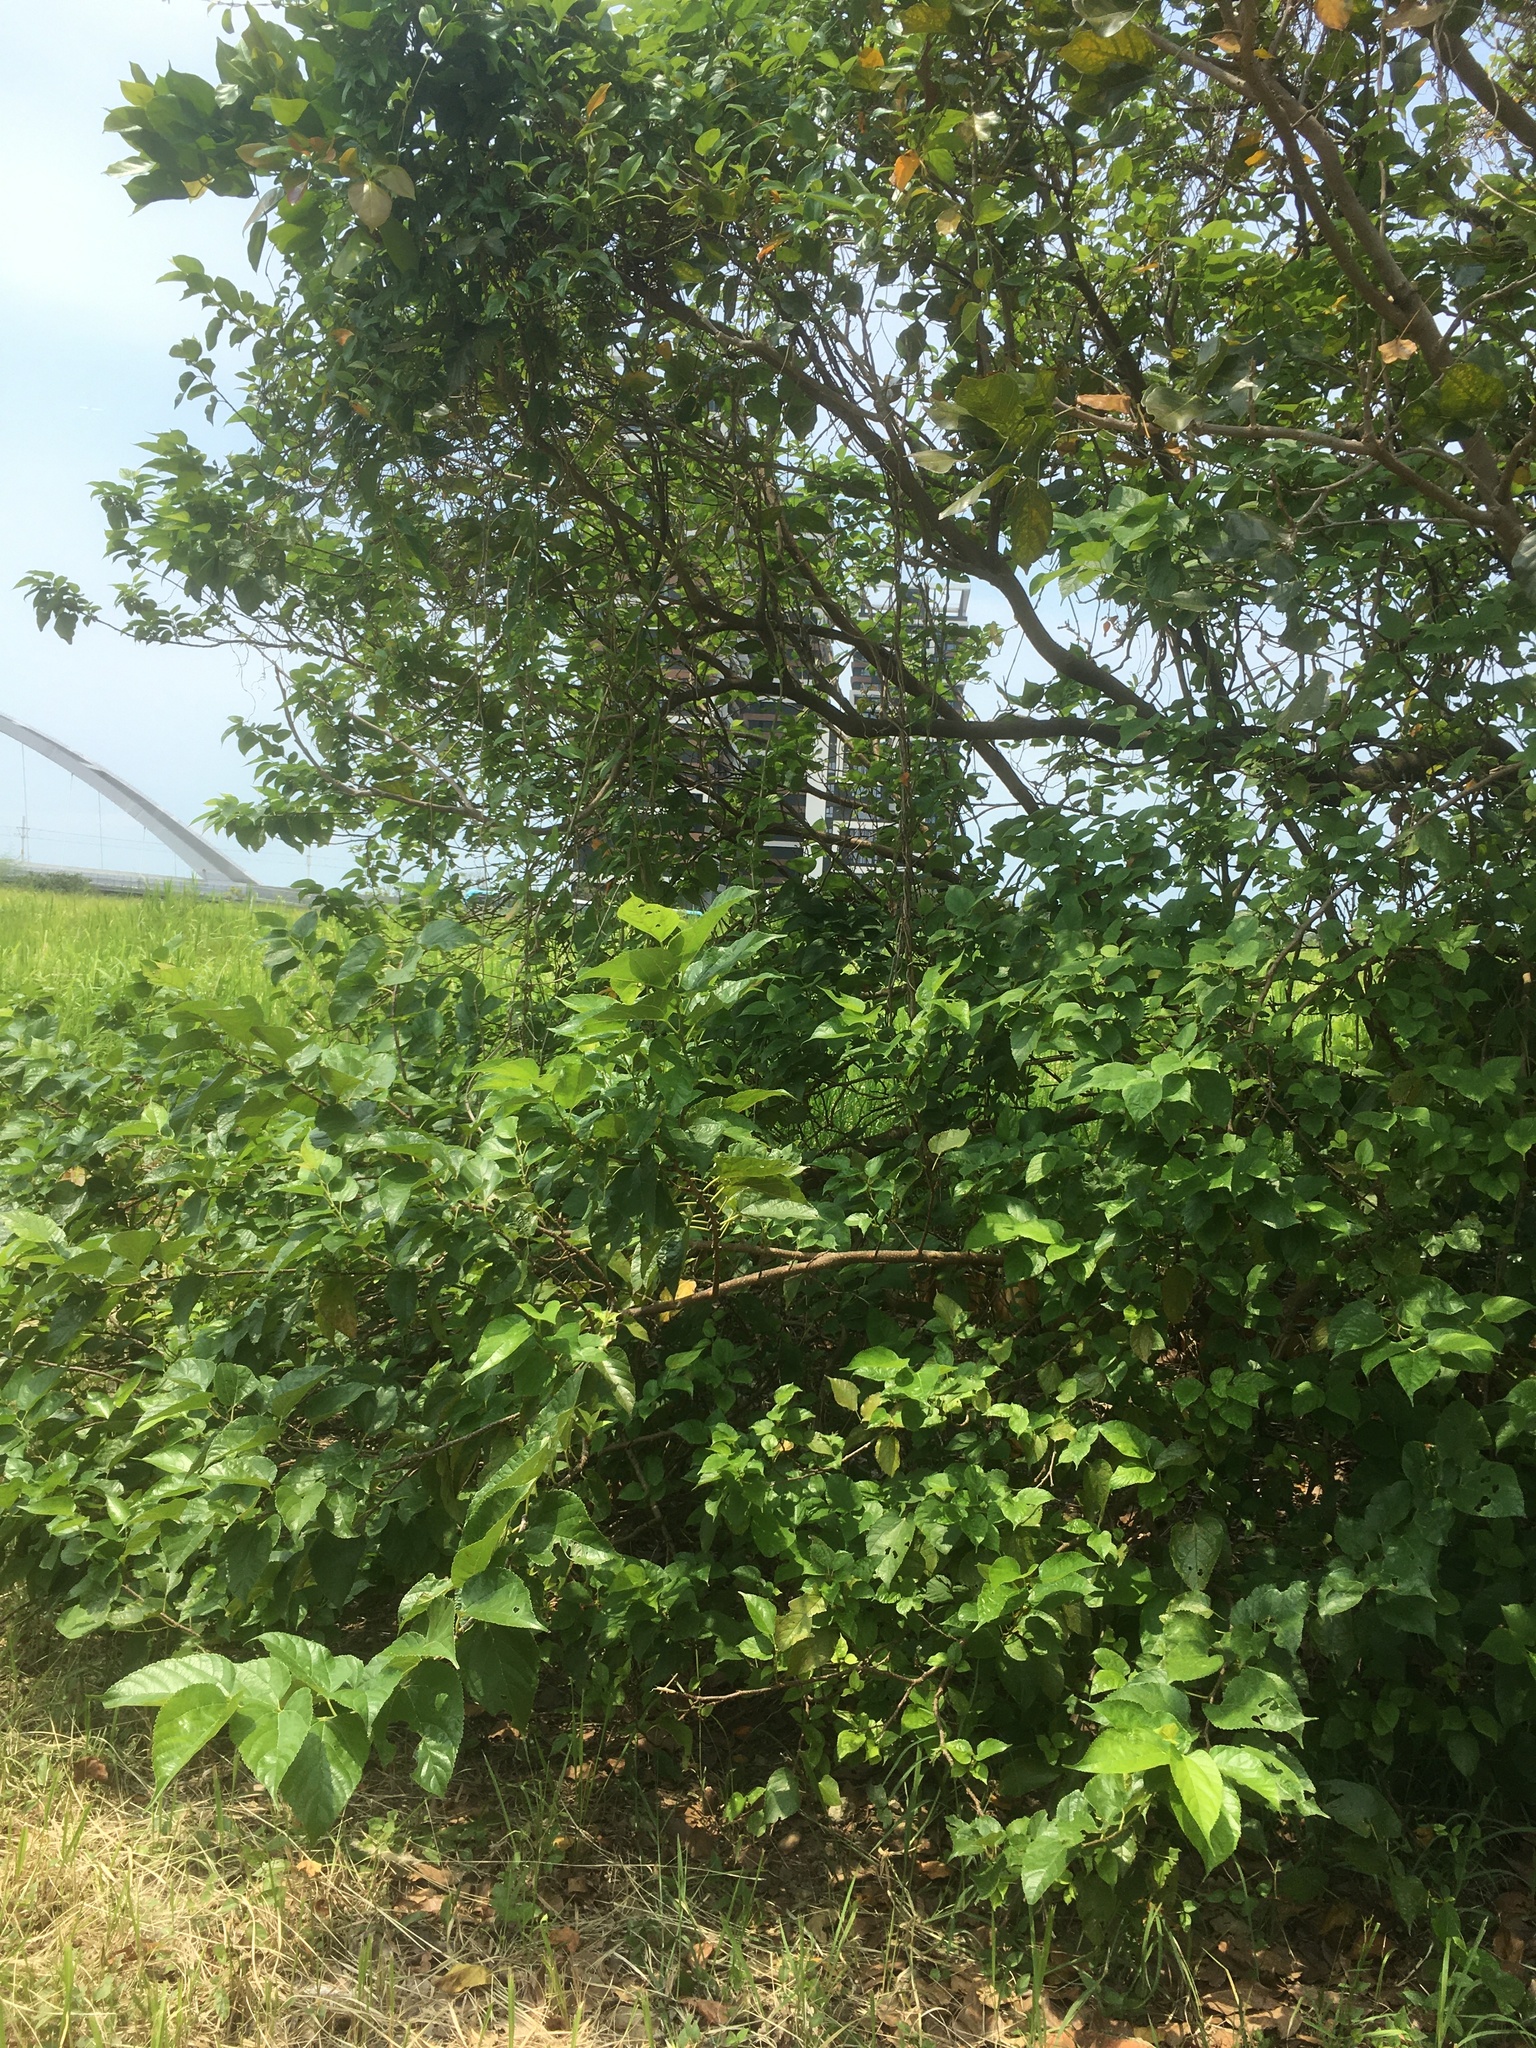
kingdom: Plantae
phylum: Tracheophyta
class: Magnoliopsida
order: Rosales
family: Moraceae
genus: Morus
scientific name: Morus indica
